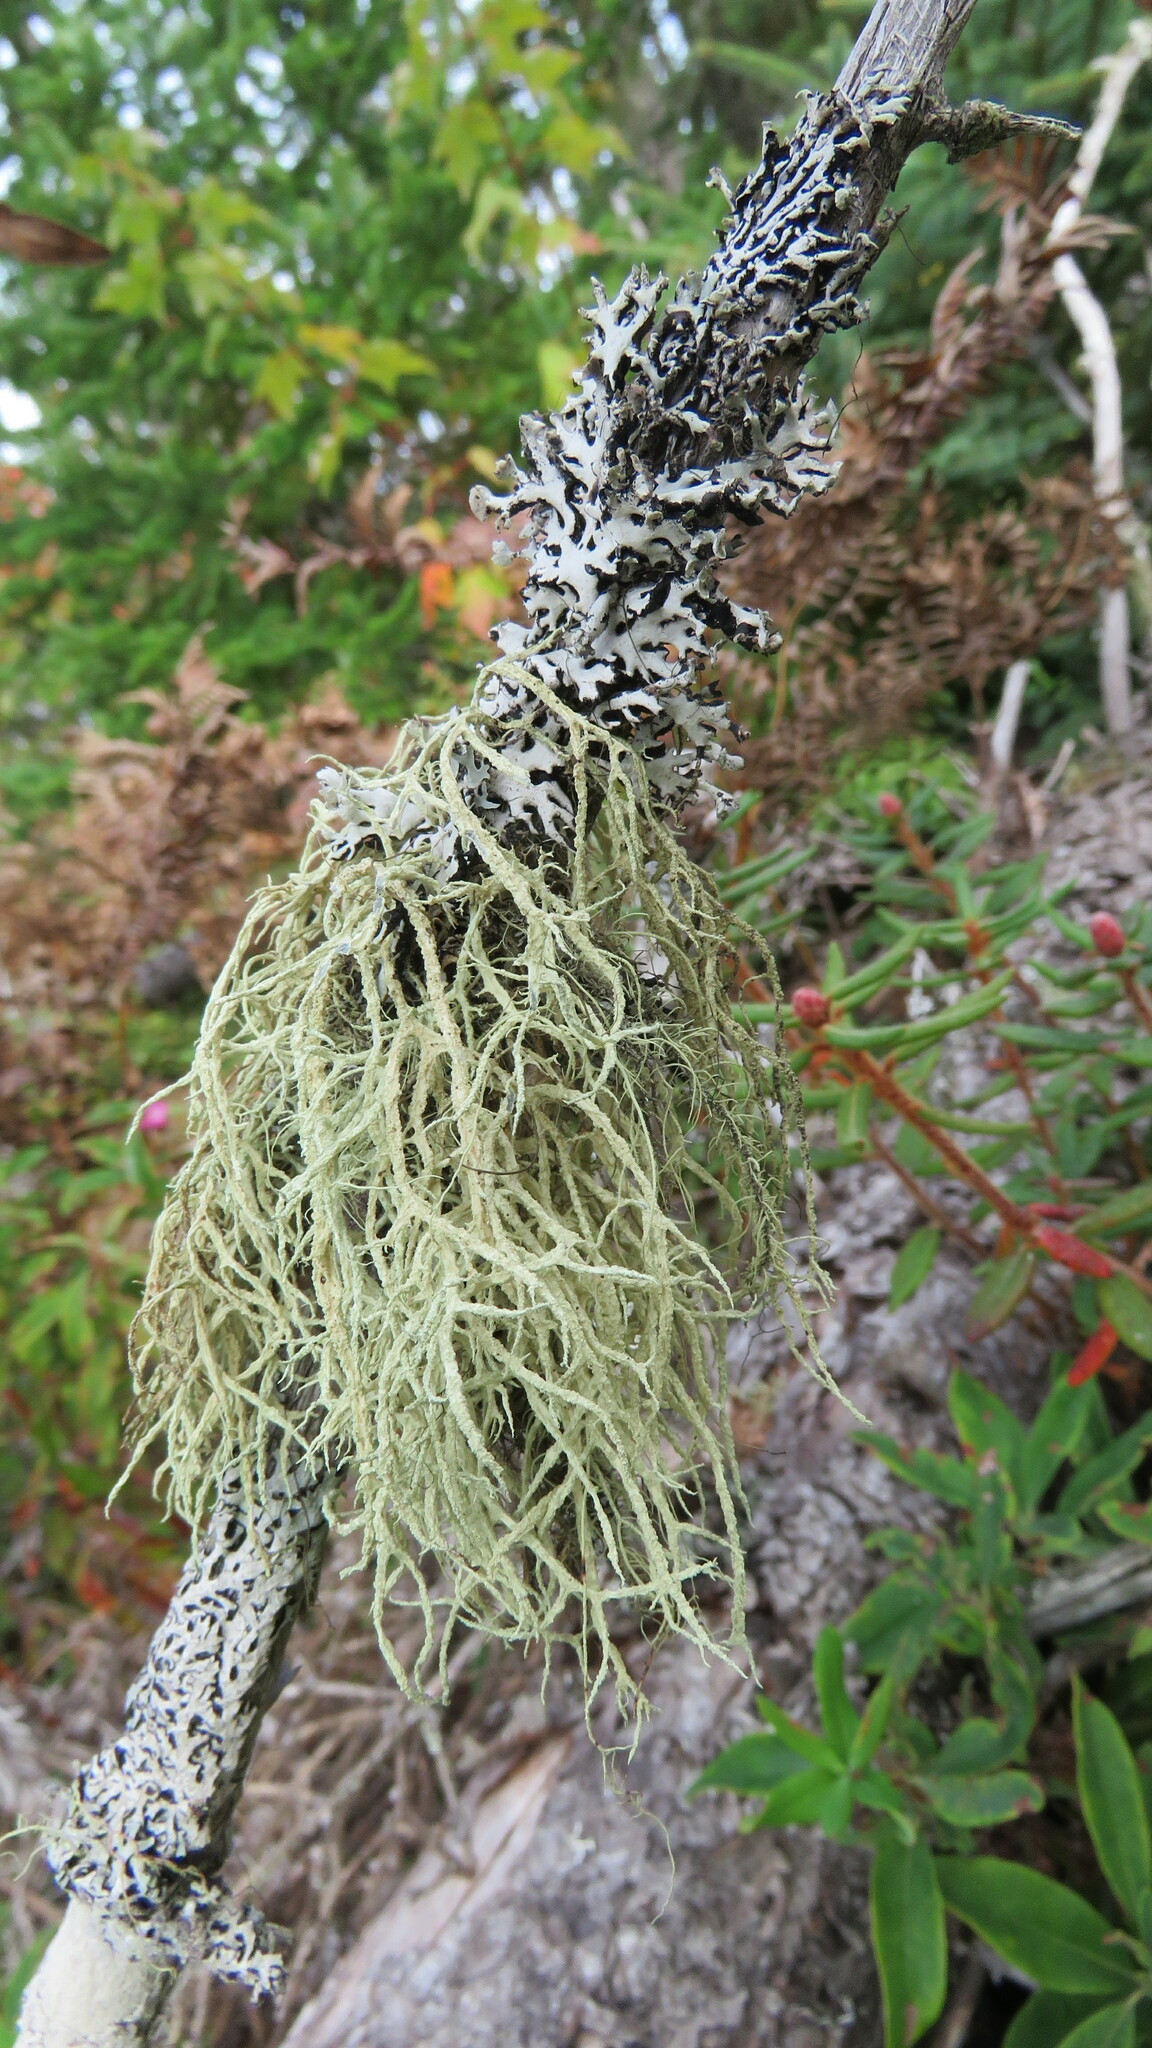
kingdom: Fungi
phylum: Ascomycota
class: Lecanoromycetes
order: Lecanorales
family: Parmeliaceae
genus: Evernia
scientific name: Evernia mesomorpha
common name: Boreal oak moss lichen
